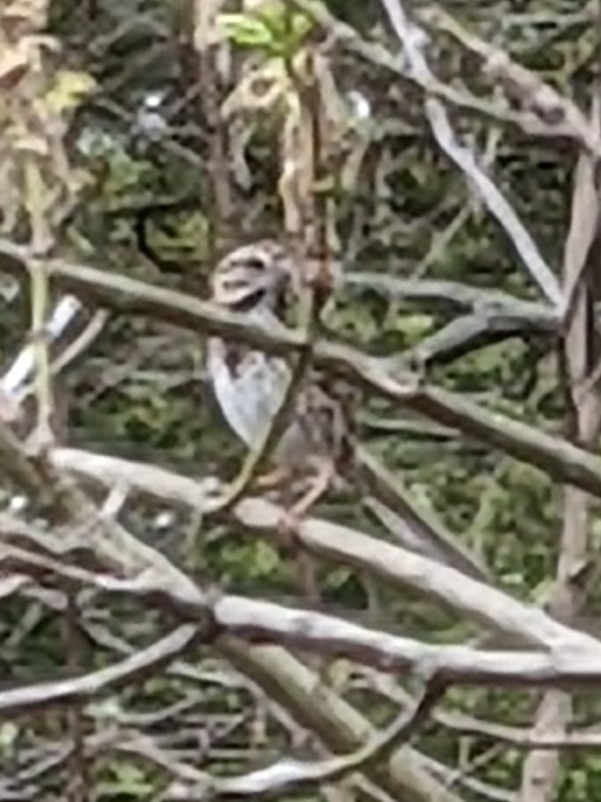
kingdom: Animalia
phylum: Chordata
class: Aves
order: Passeriformes
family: Passerellidae
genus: Melospiza
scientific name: Melospiza melodia
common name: Song sparrow
